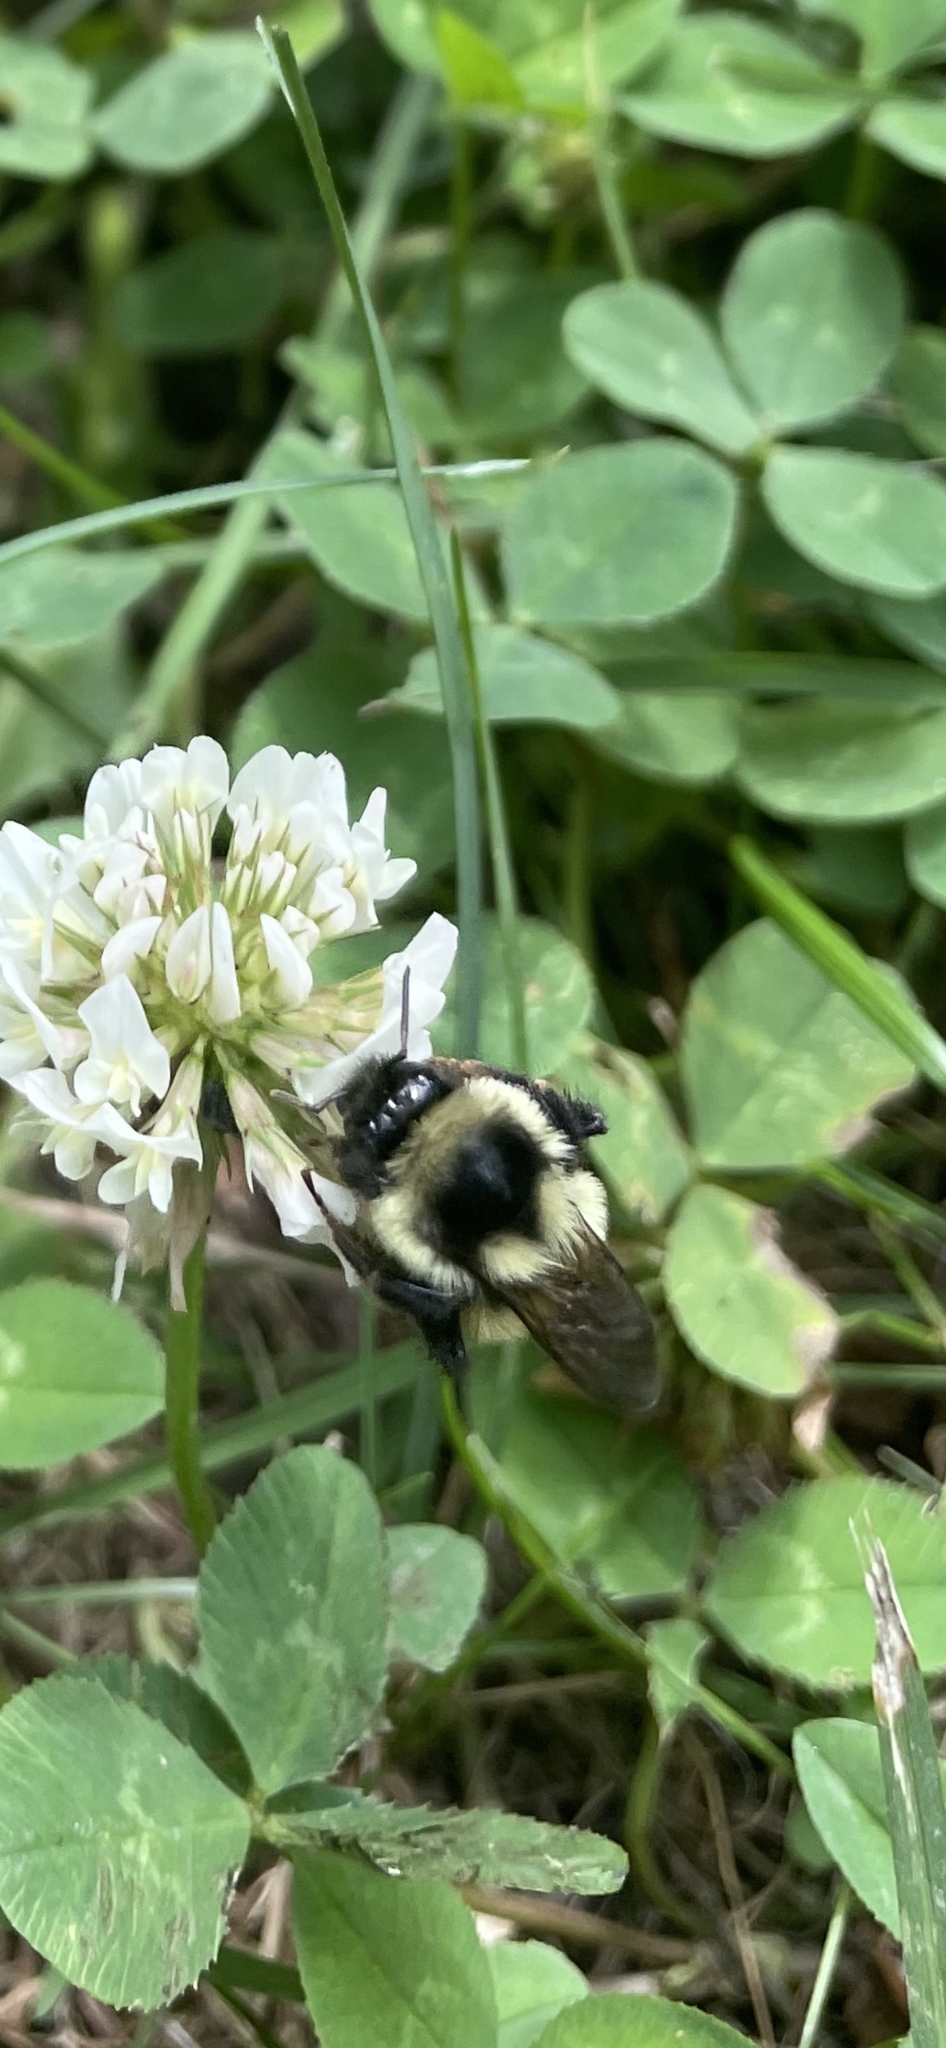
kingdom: Animalia
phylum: Arthropoda
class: Insecta
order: Hymenoptera
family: Apidae
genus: Bombus
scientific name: Bombus ternarius
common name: Tri-colored bumble bee
